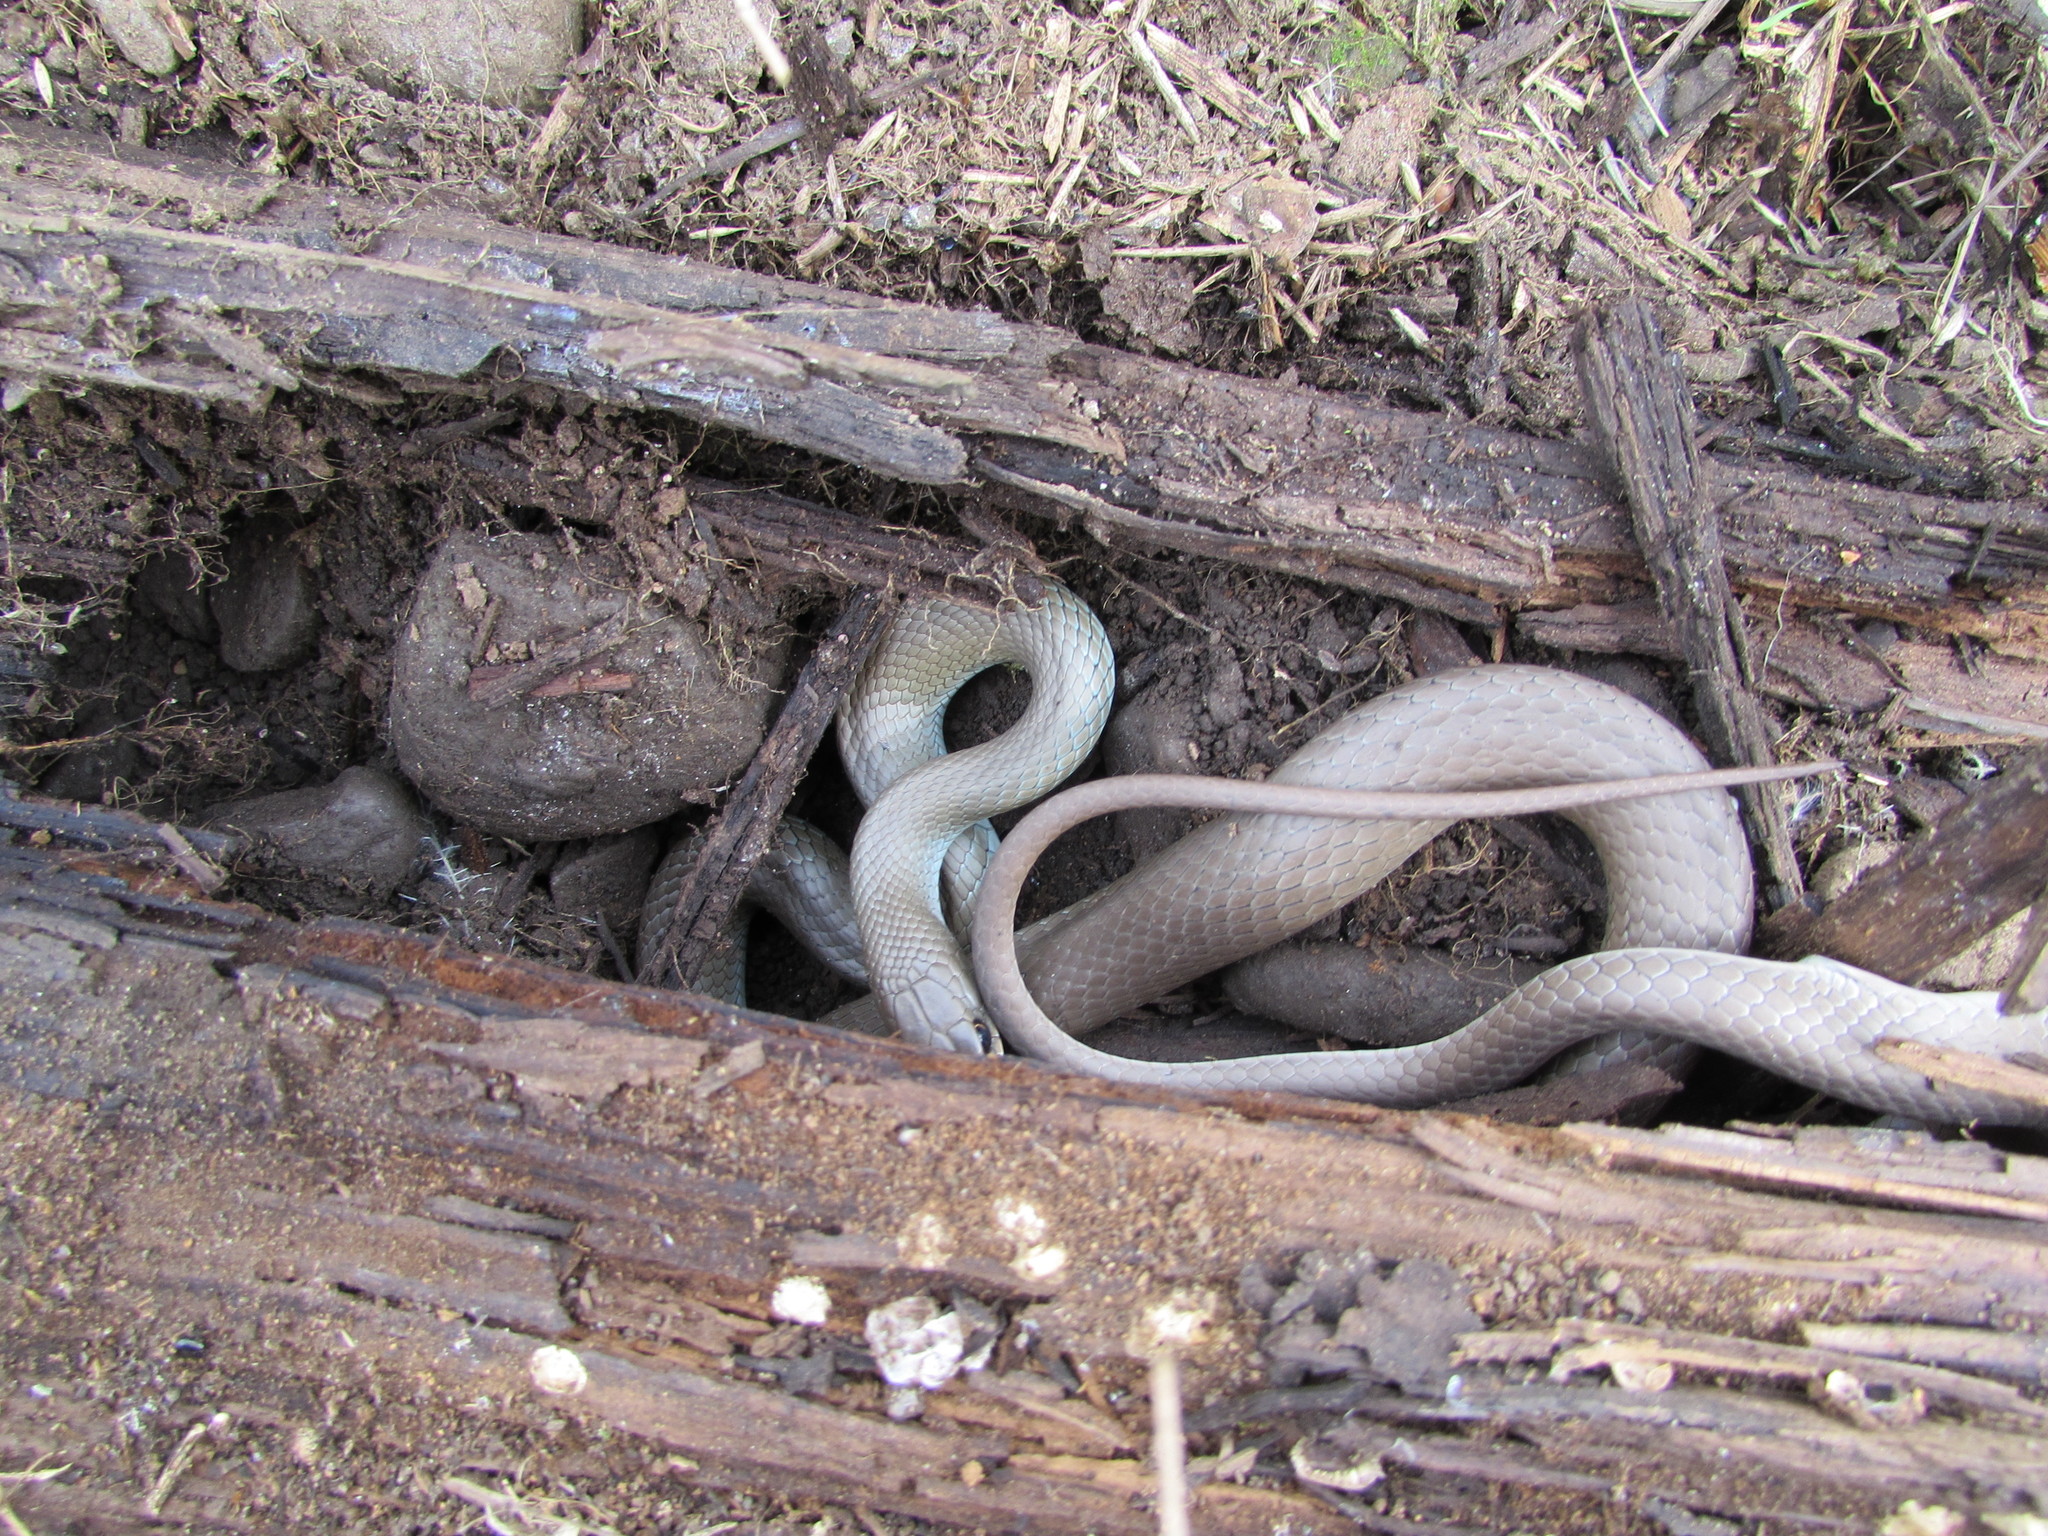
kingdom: Animalia
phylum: Chordata
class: Squamata
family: Colubridae
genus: Coluber
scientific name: Coluber constrictor
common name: Eastern racer
